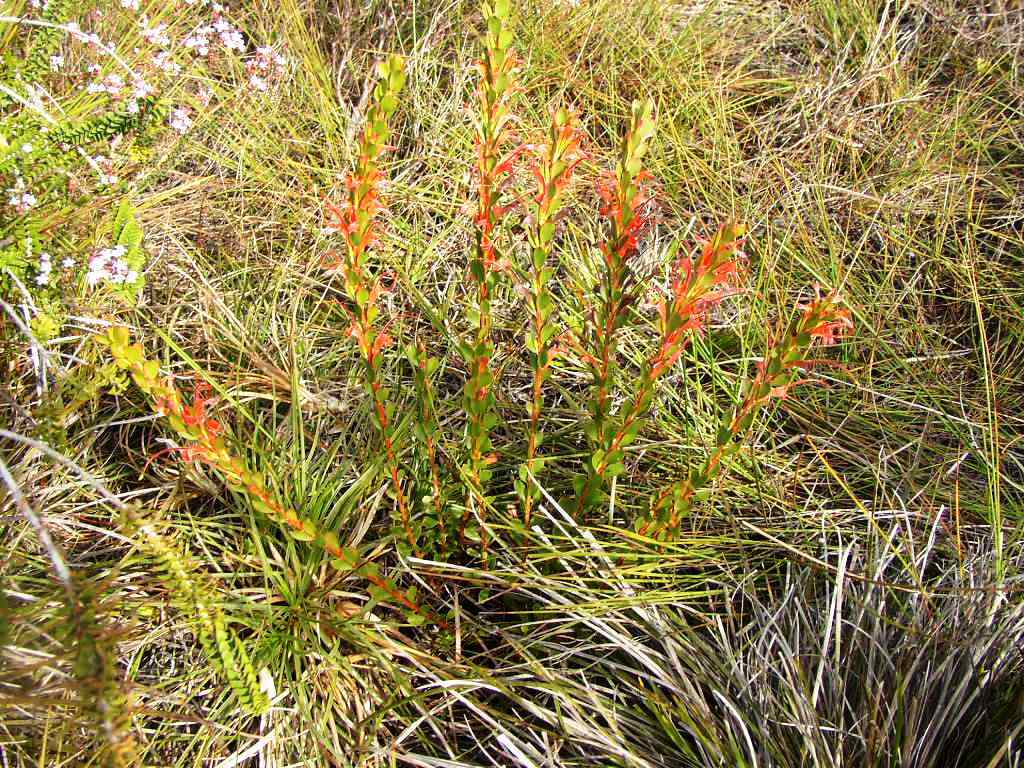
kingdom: Plantae
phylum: Tracheophyta
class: Magnoliopsida
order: Proteales
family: Proteaceae
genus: Adenanthos
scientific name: Adenanthos obovatus
